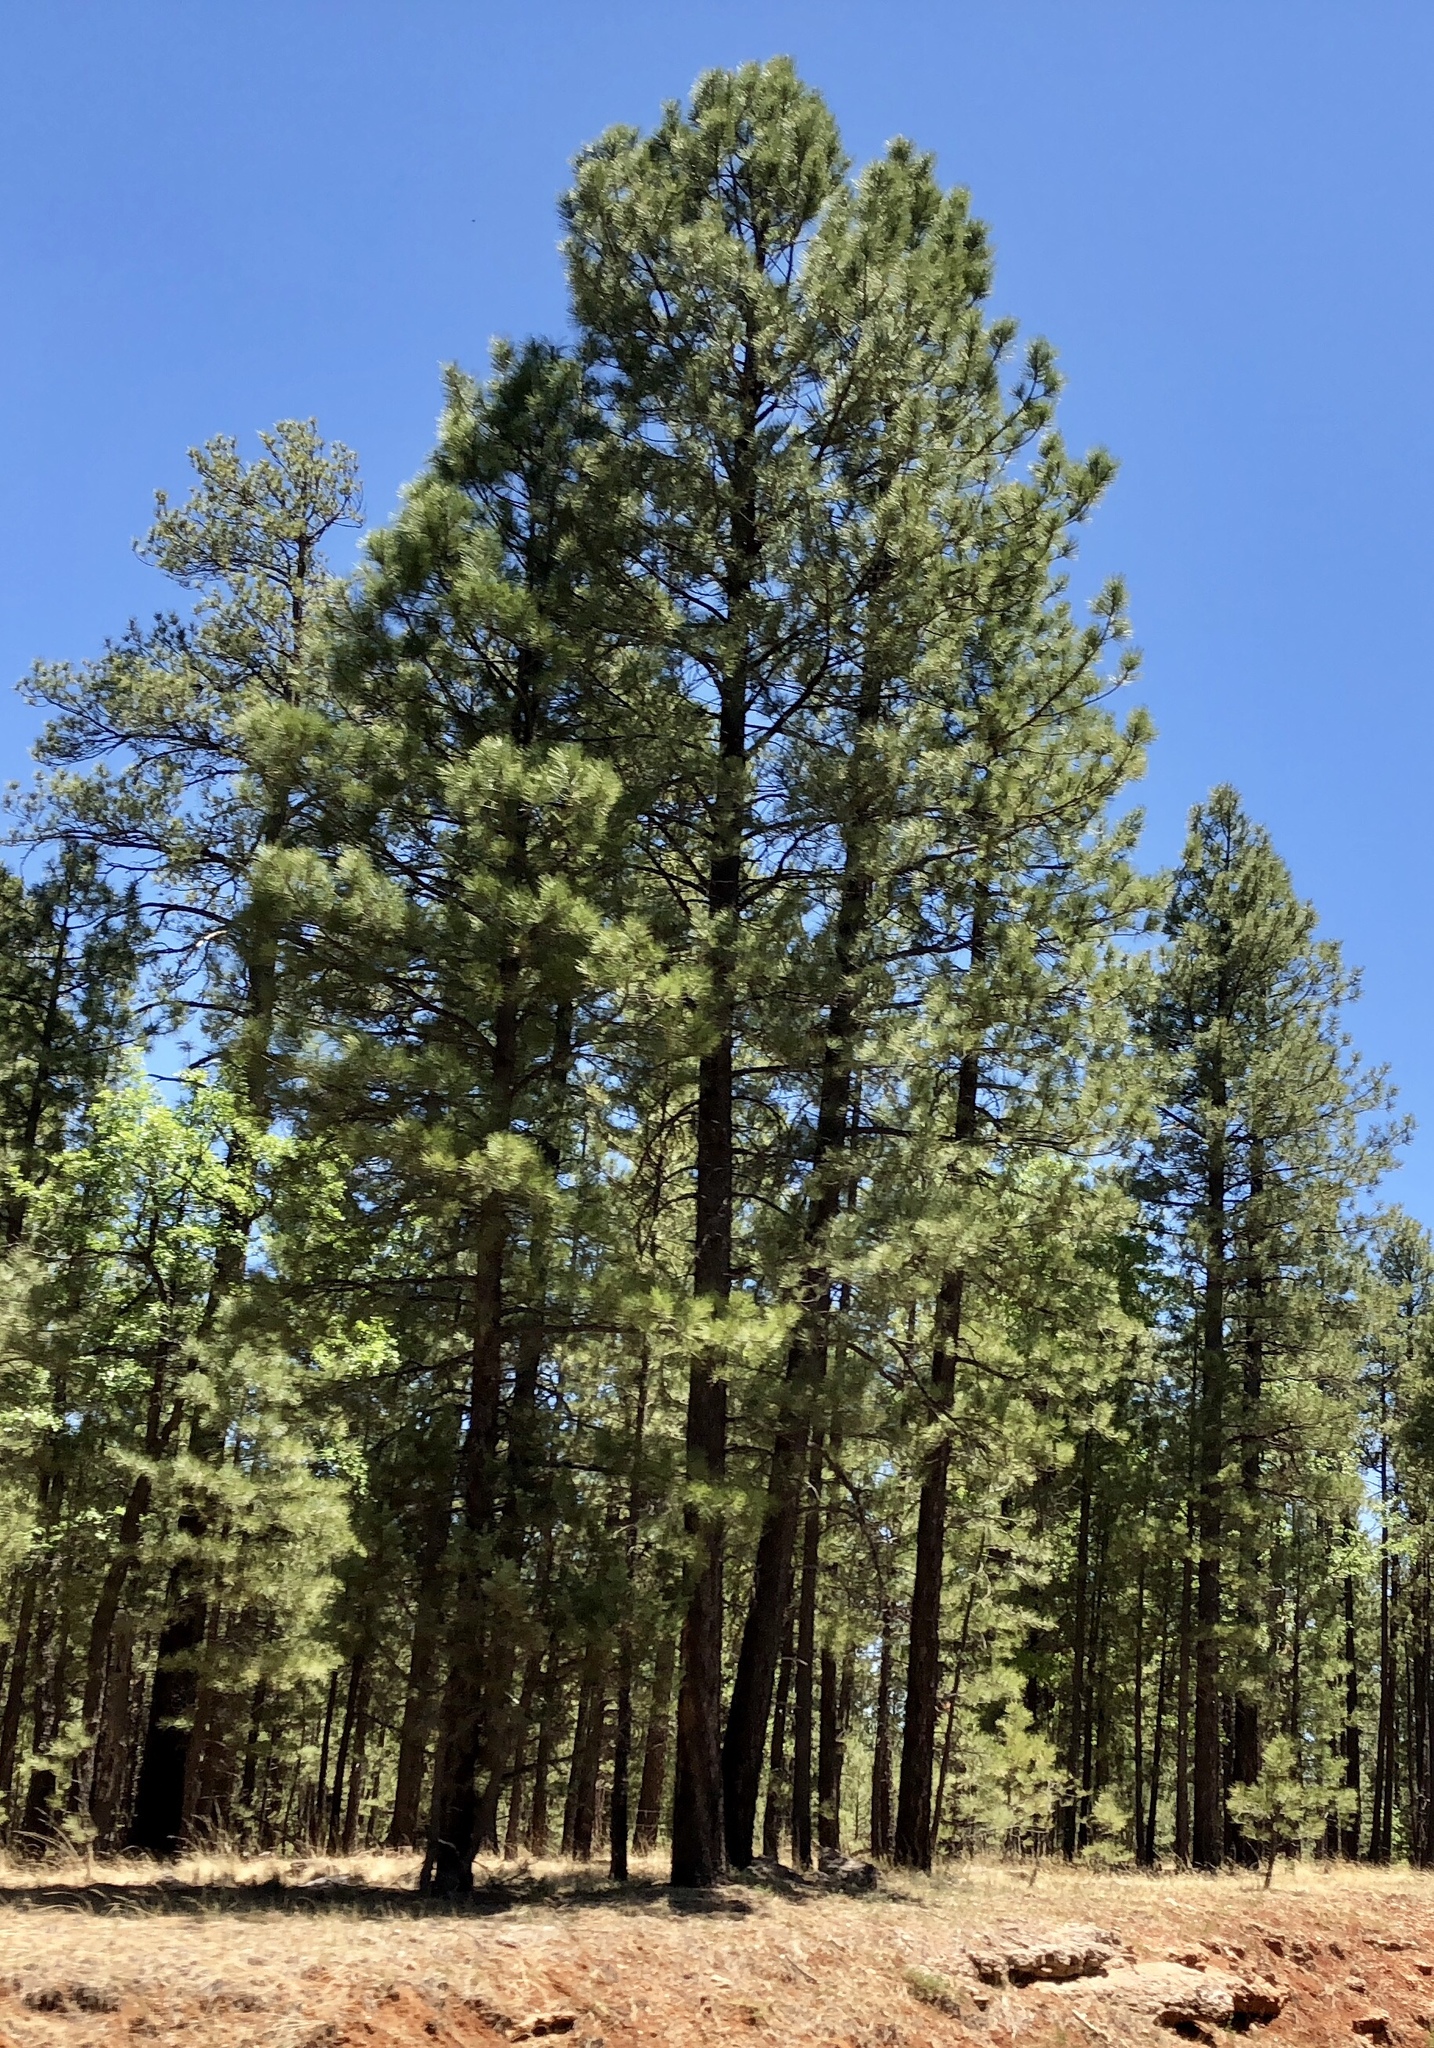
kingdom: Plantae
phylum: Tracheophyta
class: Pinopsida
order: Pinales
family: Pinaceae
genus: Pinus
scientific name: Pinus ponderosa
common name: Western yellow-pine
